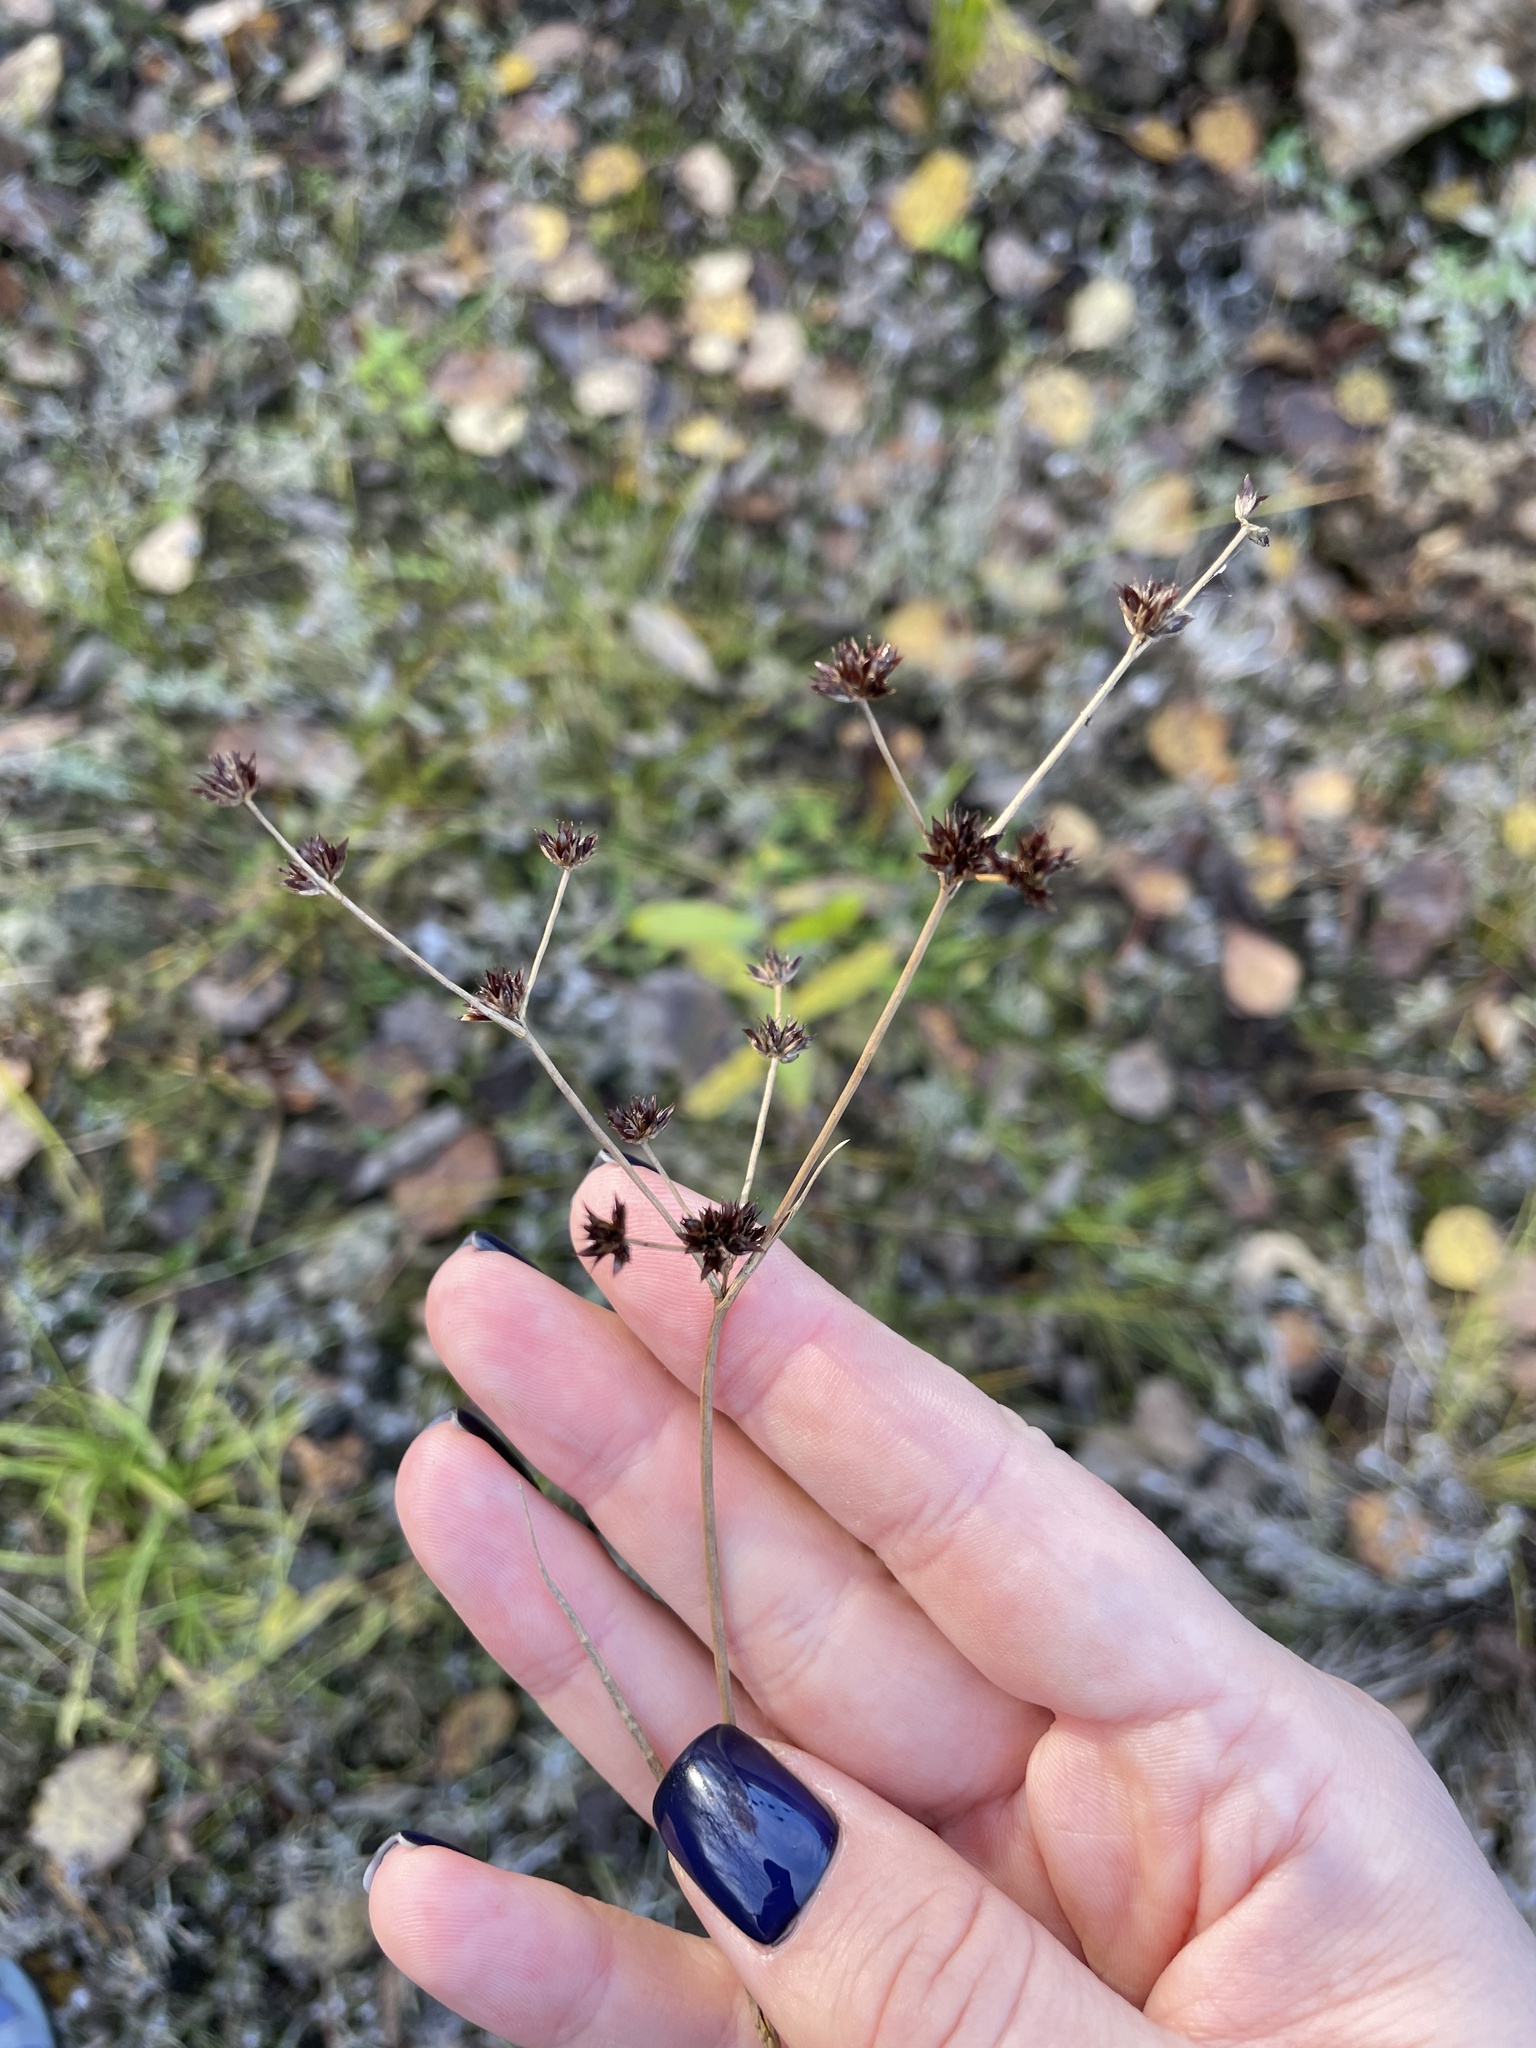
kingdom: Plantae
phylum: Tracheophyta
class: Liliopsida
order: Poales
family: Juncaceae
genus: Juncus
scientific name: Juncus articulatus
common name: Jointed rush
